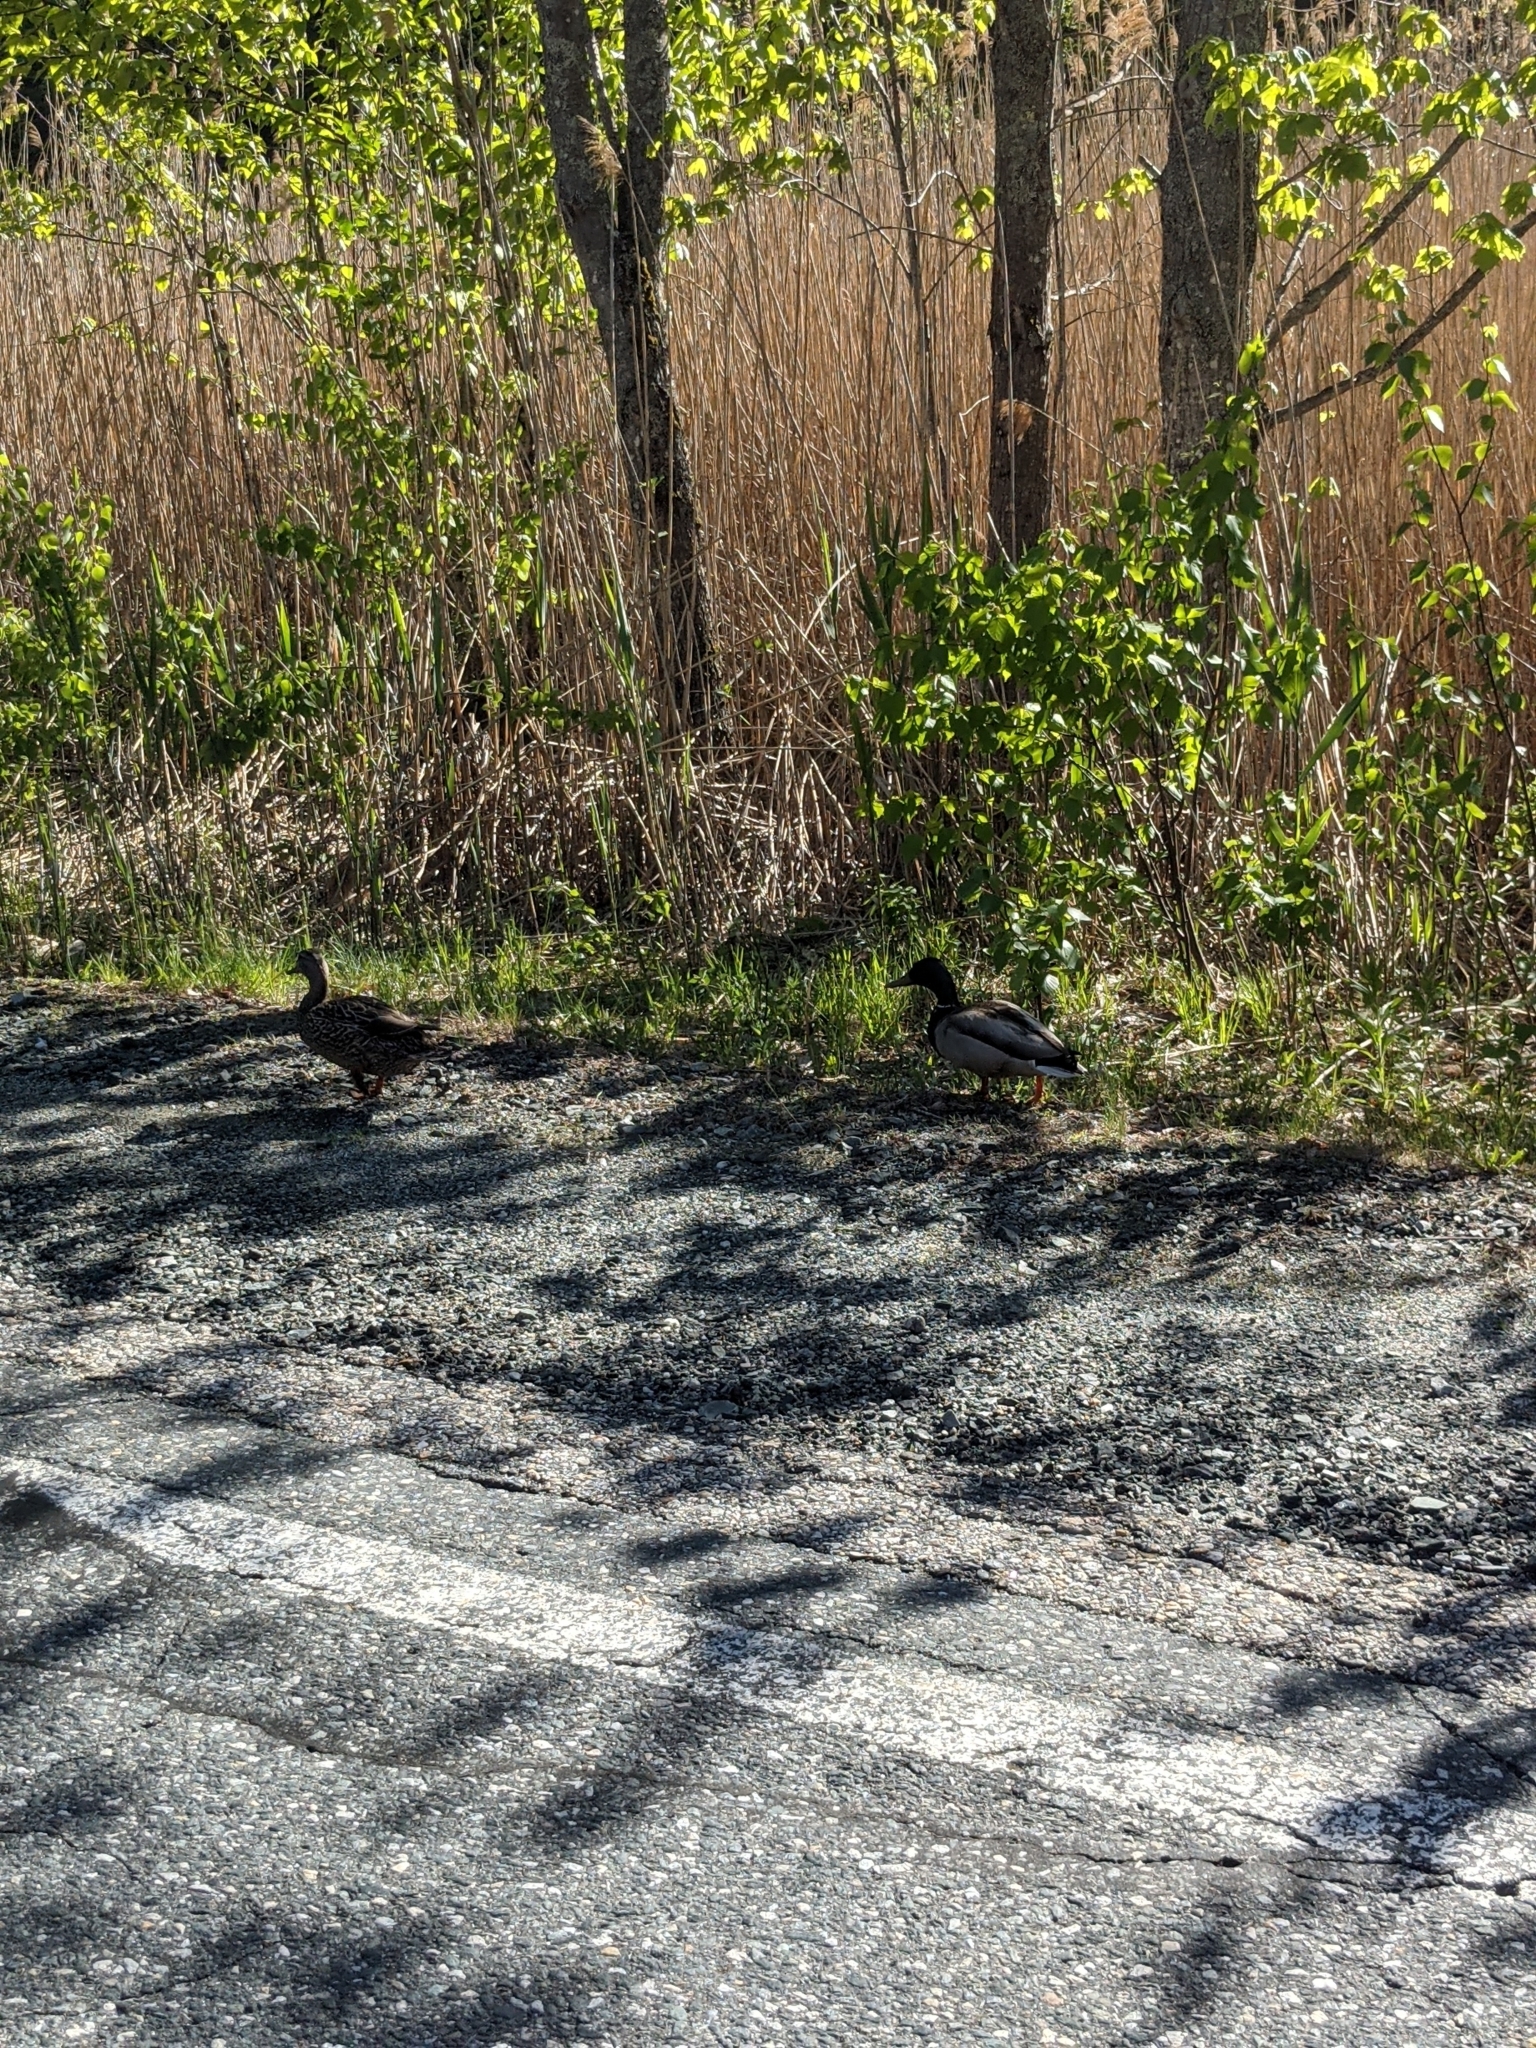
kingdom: Animalia
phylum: Chordata
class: Aves
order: Anseriformes
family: Anatidae
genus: Anas
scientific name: Anas platyrhynchos
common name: Mallard
